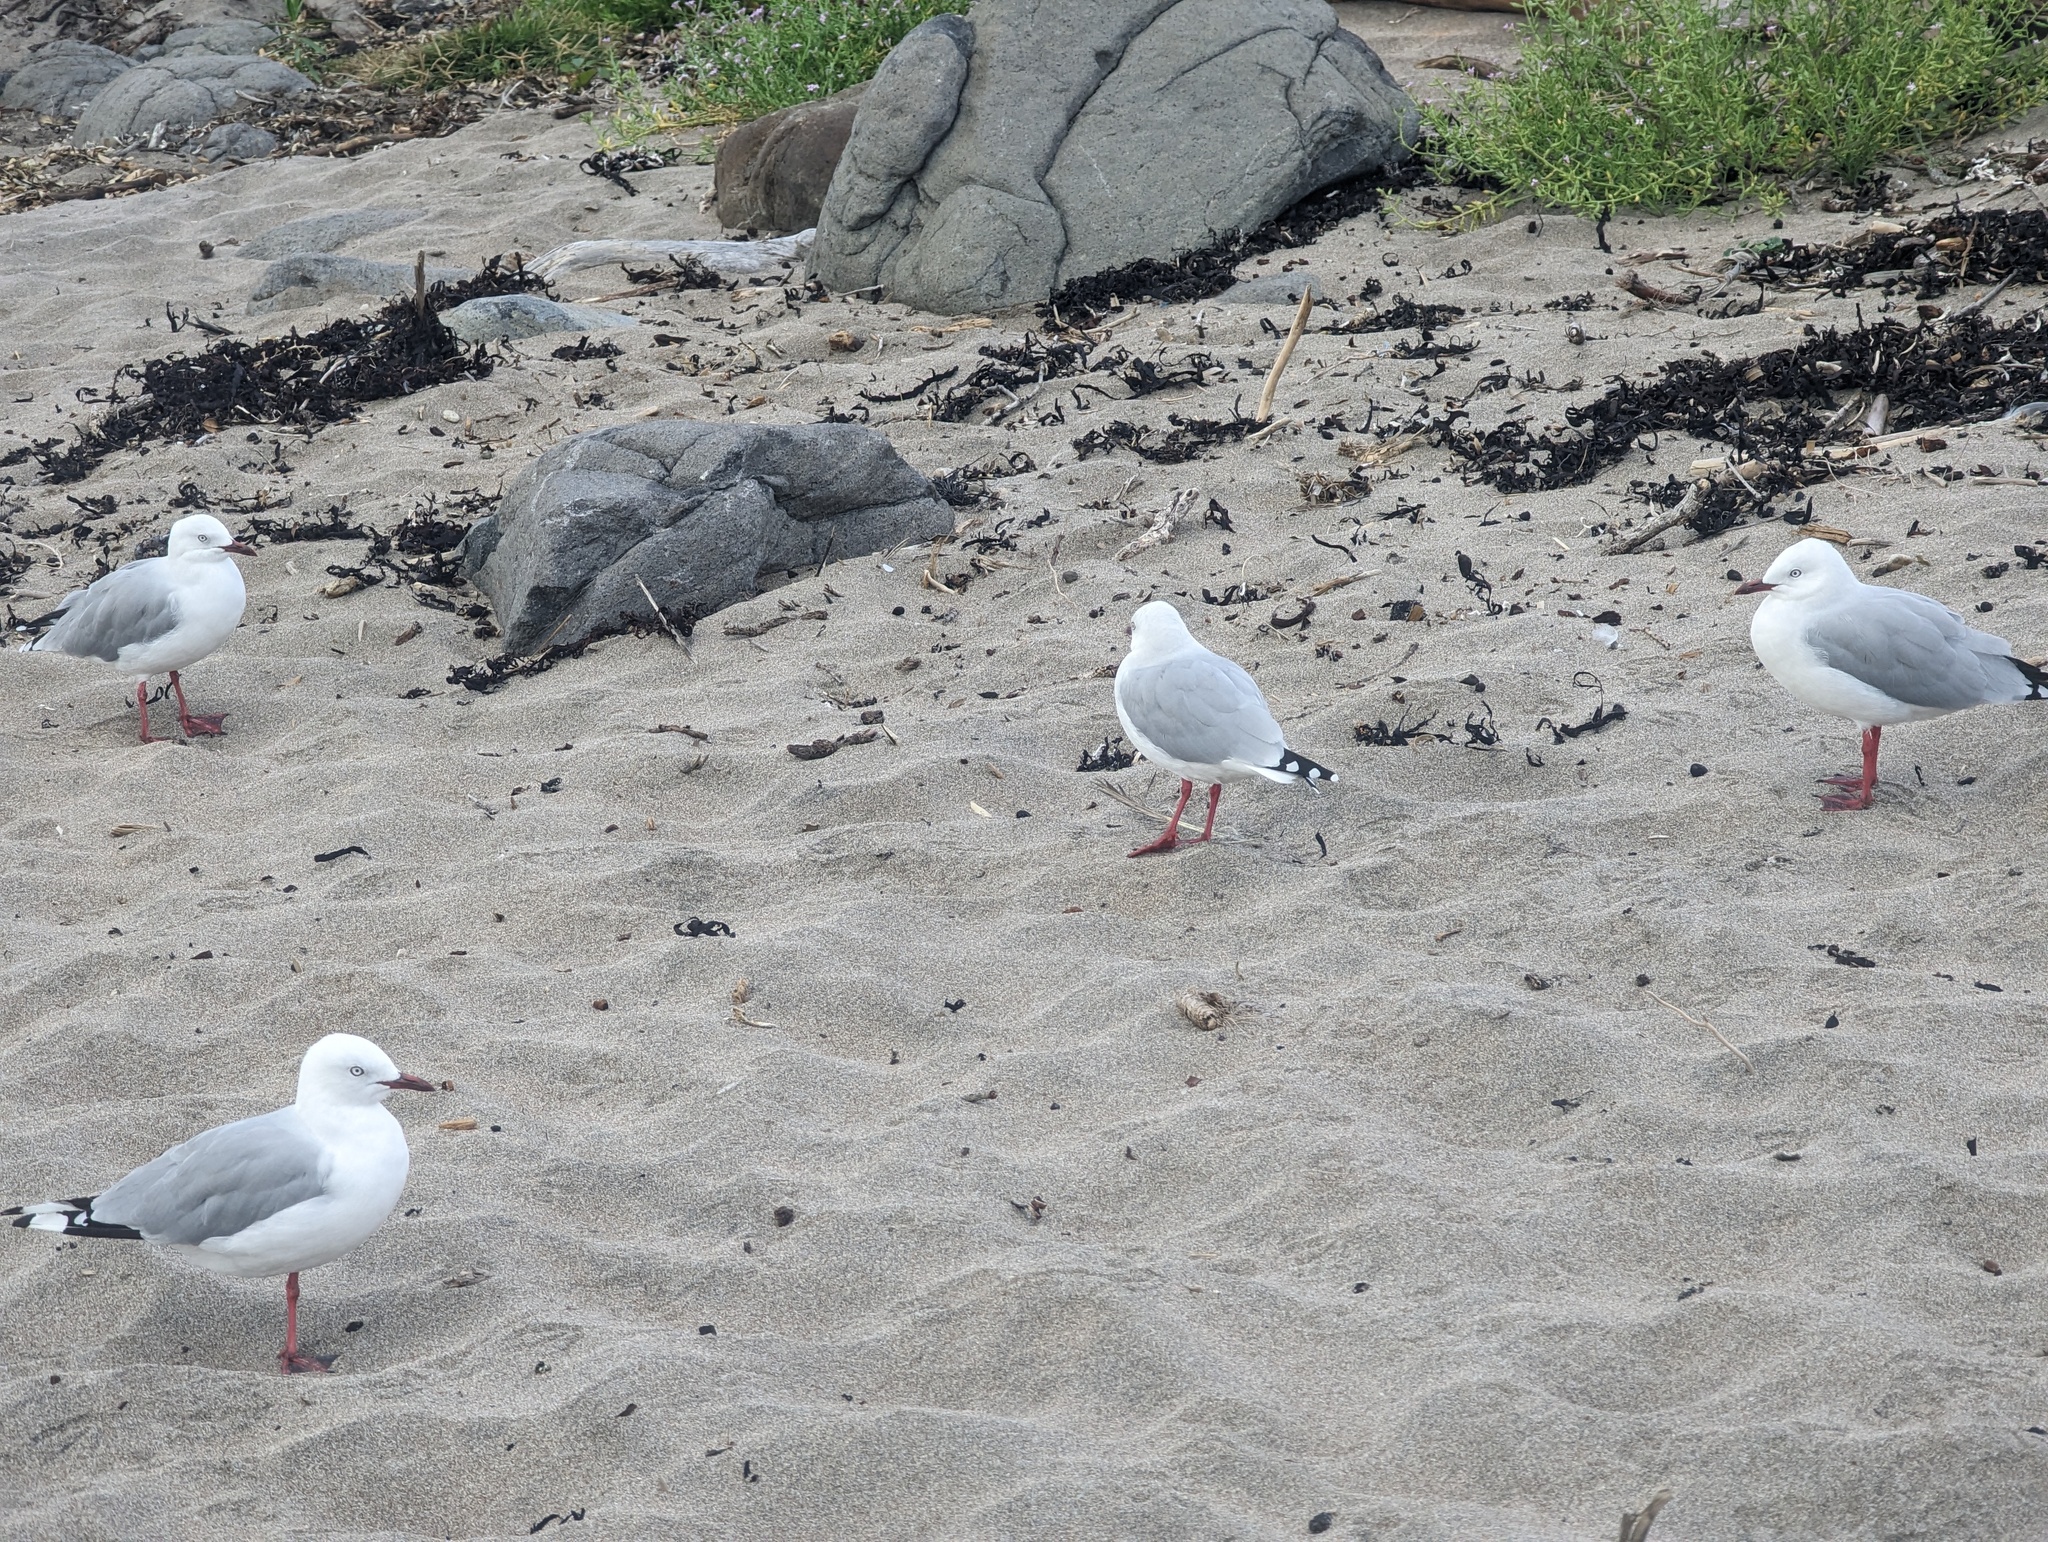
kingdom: Animalia
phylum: Chordata
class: Aves
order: Charadriiformes
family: Laridae
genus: Chroicocephalus
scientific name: Chroicocephalus novaehollandiae
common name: Silver gull
